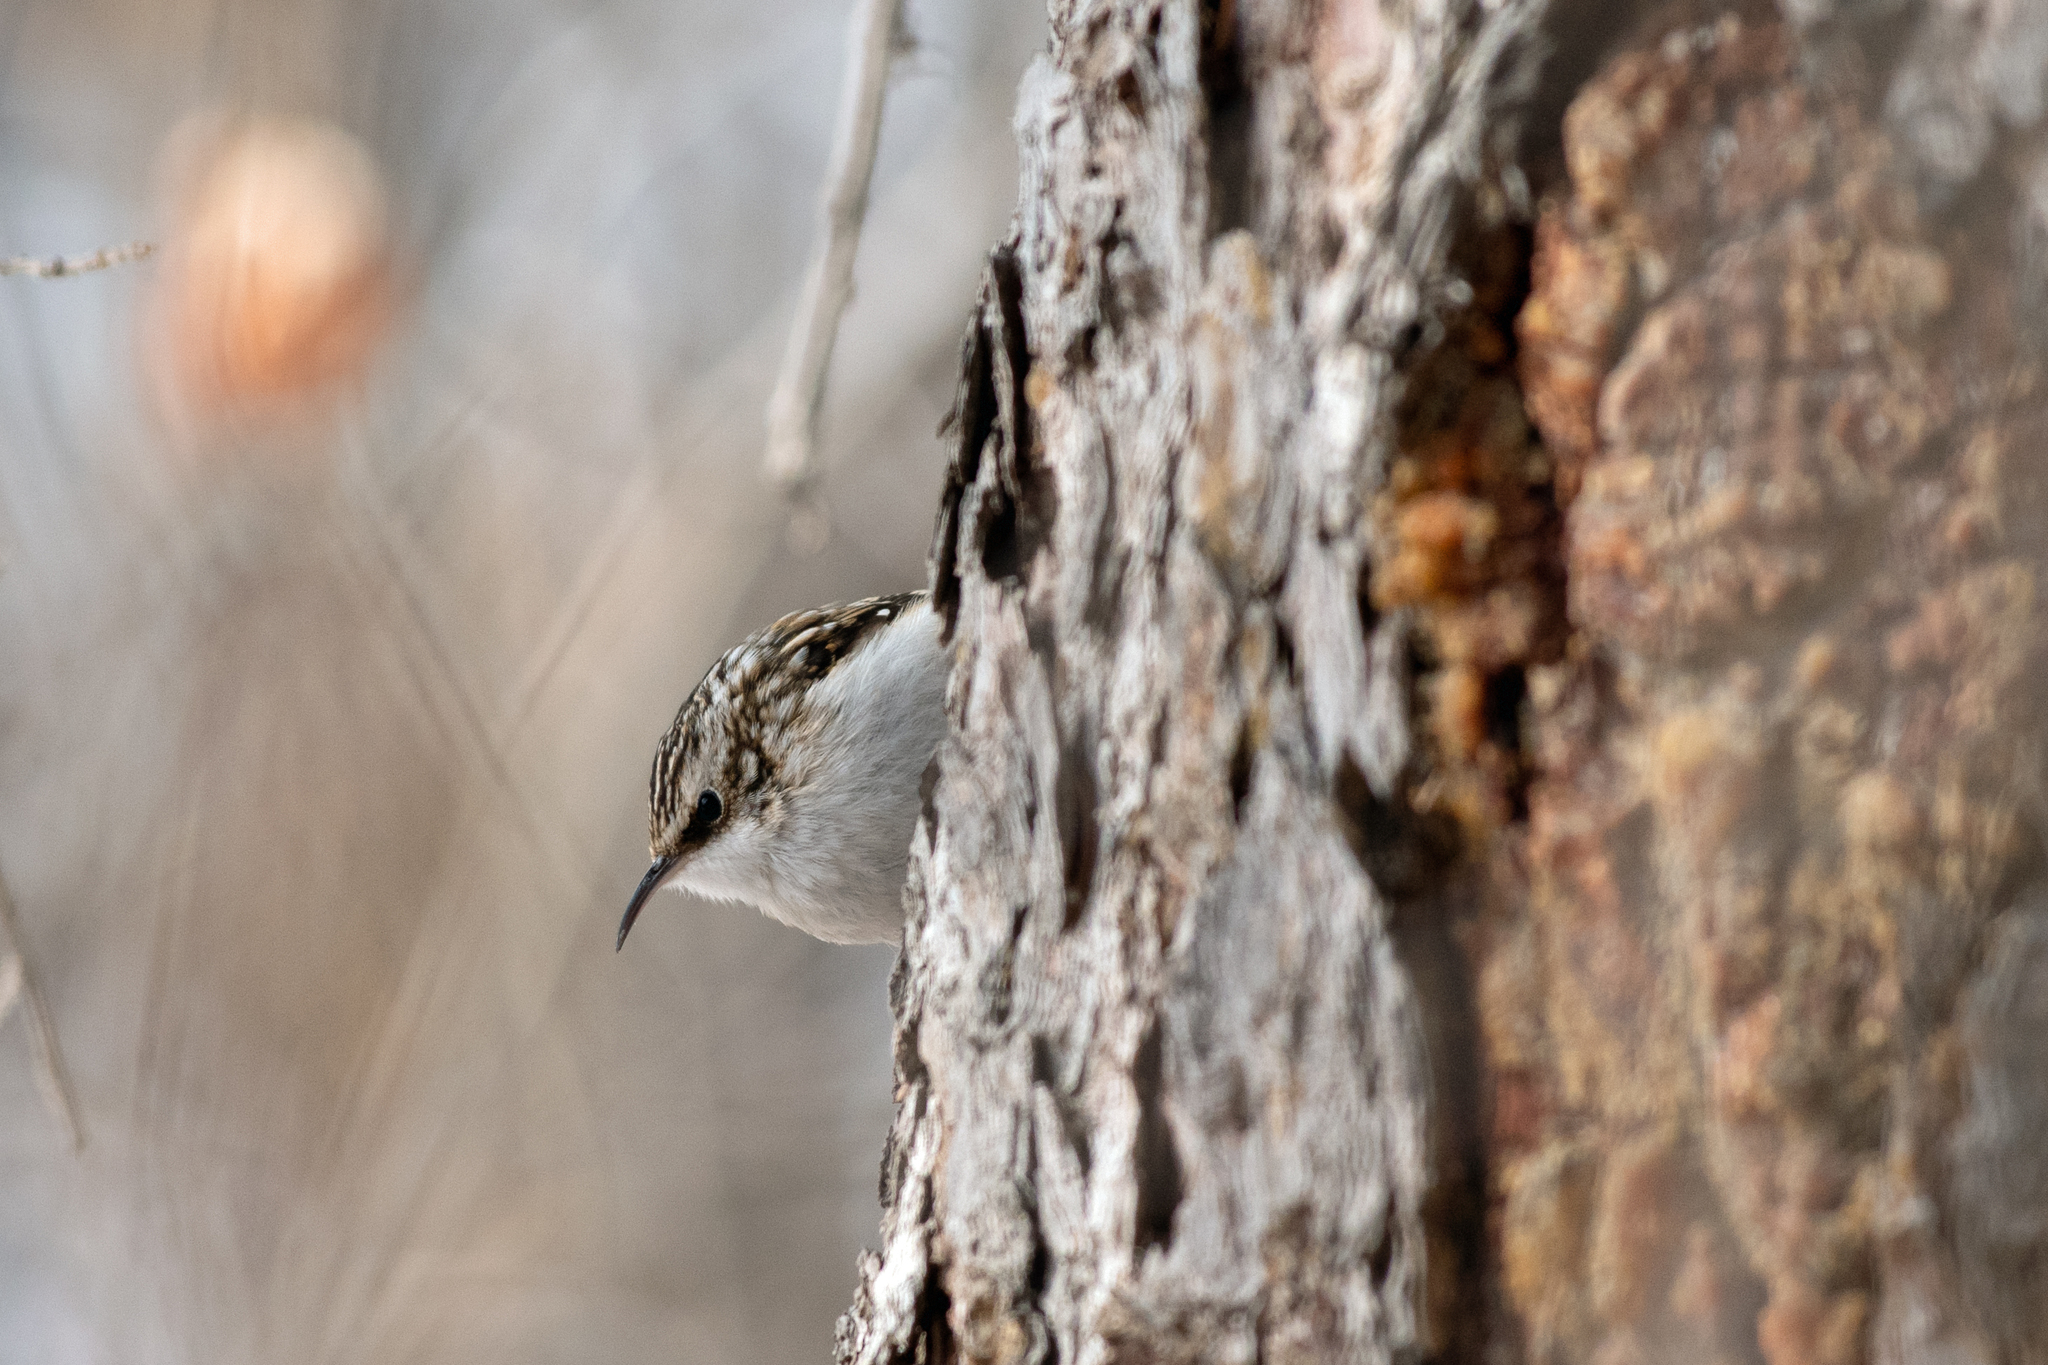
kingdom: Animalia
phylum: Chordata
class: Aves
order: Passeriformes
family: Certhiidae
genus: Certhia
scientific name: Certhia americana
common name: Brown creeper
